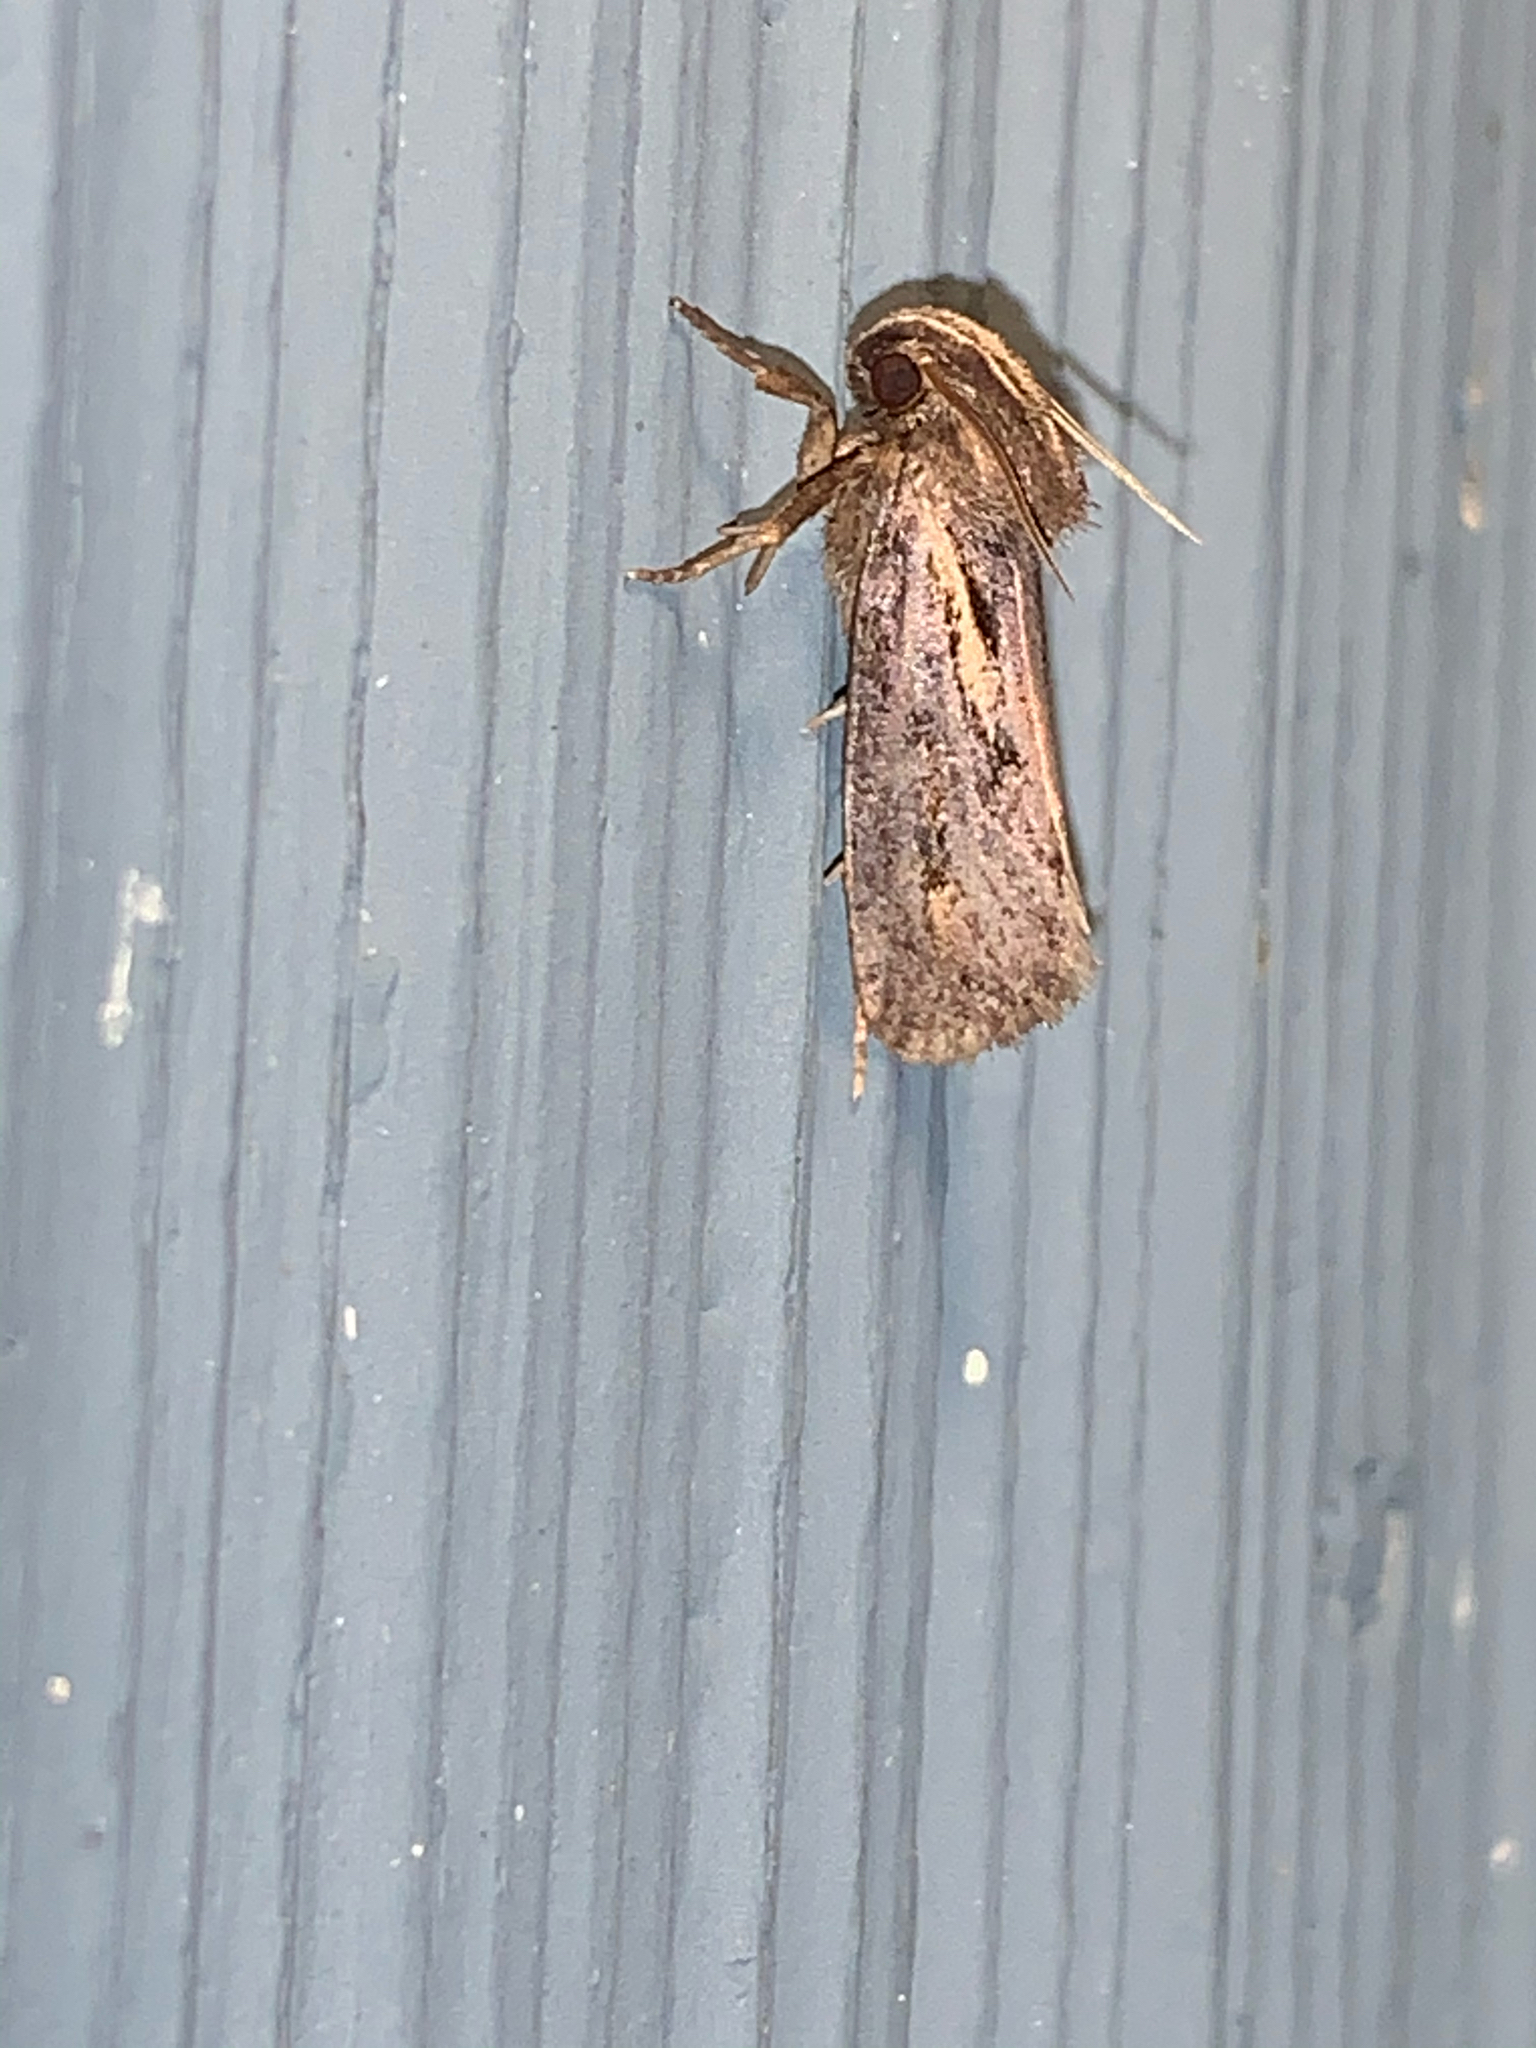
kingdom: Animalia
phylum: Arthropoda
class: Insecta
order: Lepidoptera
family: Tineidae
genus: Acrolophus
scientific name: Acrolophus popeanella
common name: Clemens' grass tubeworm moth
